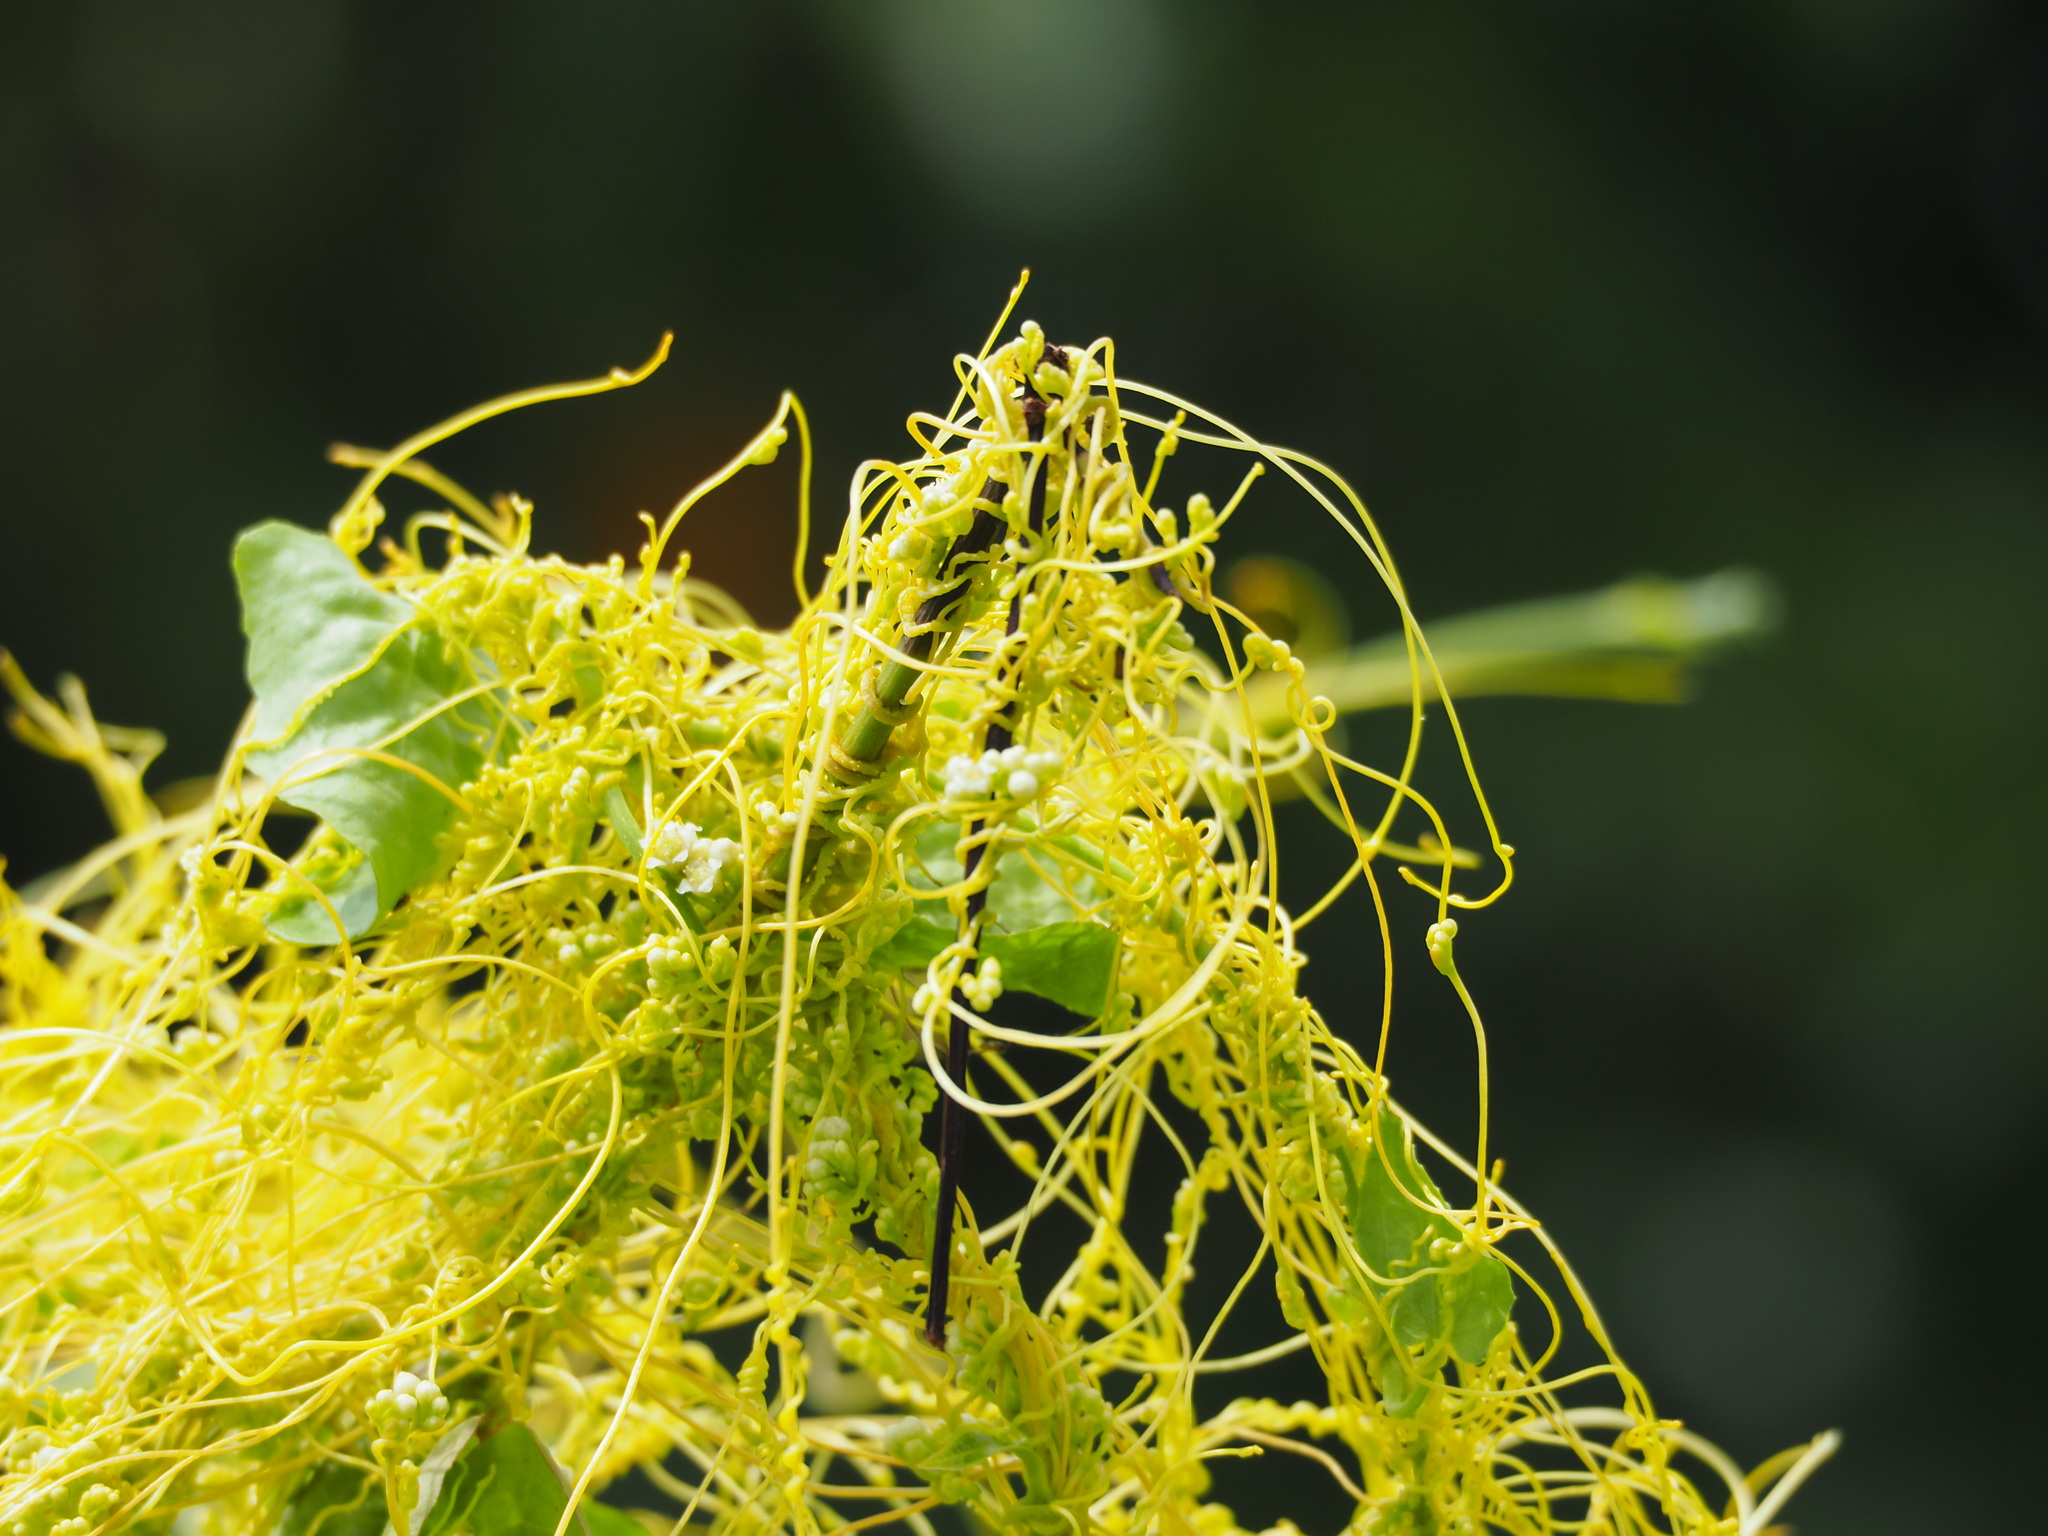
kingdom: Plantae
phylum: Tracheophyta
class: Magnoliopsida
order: Solanales
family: Convolvulaceae
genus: Cuscuta
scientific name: Cuscuta campestris
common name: Yellow dodder
